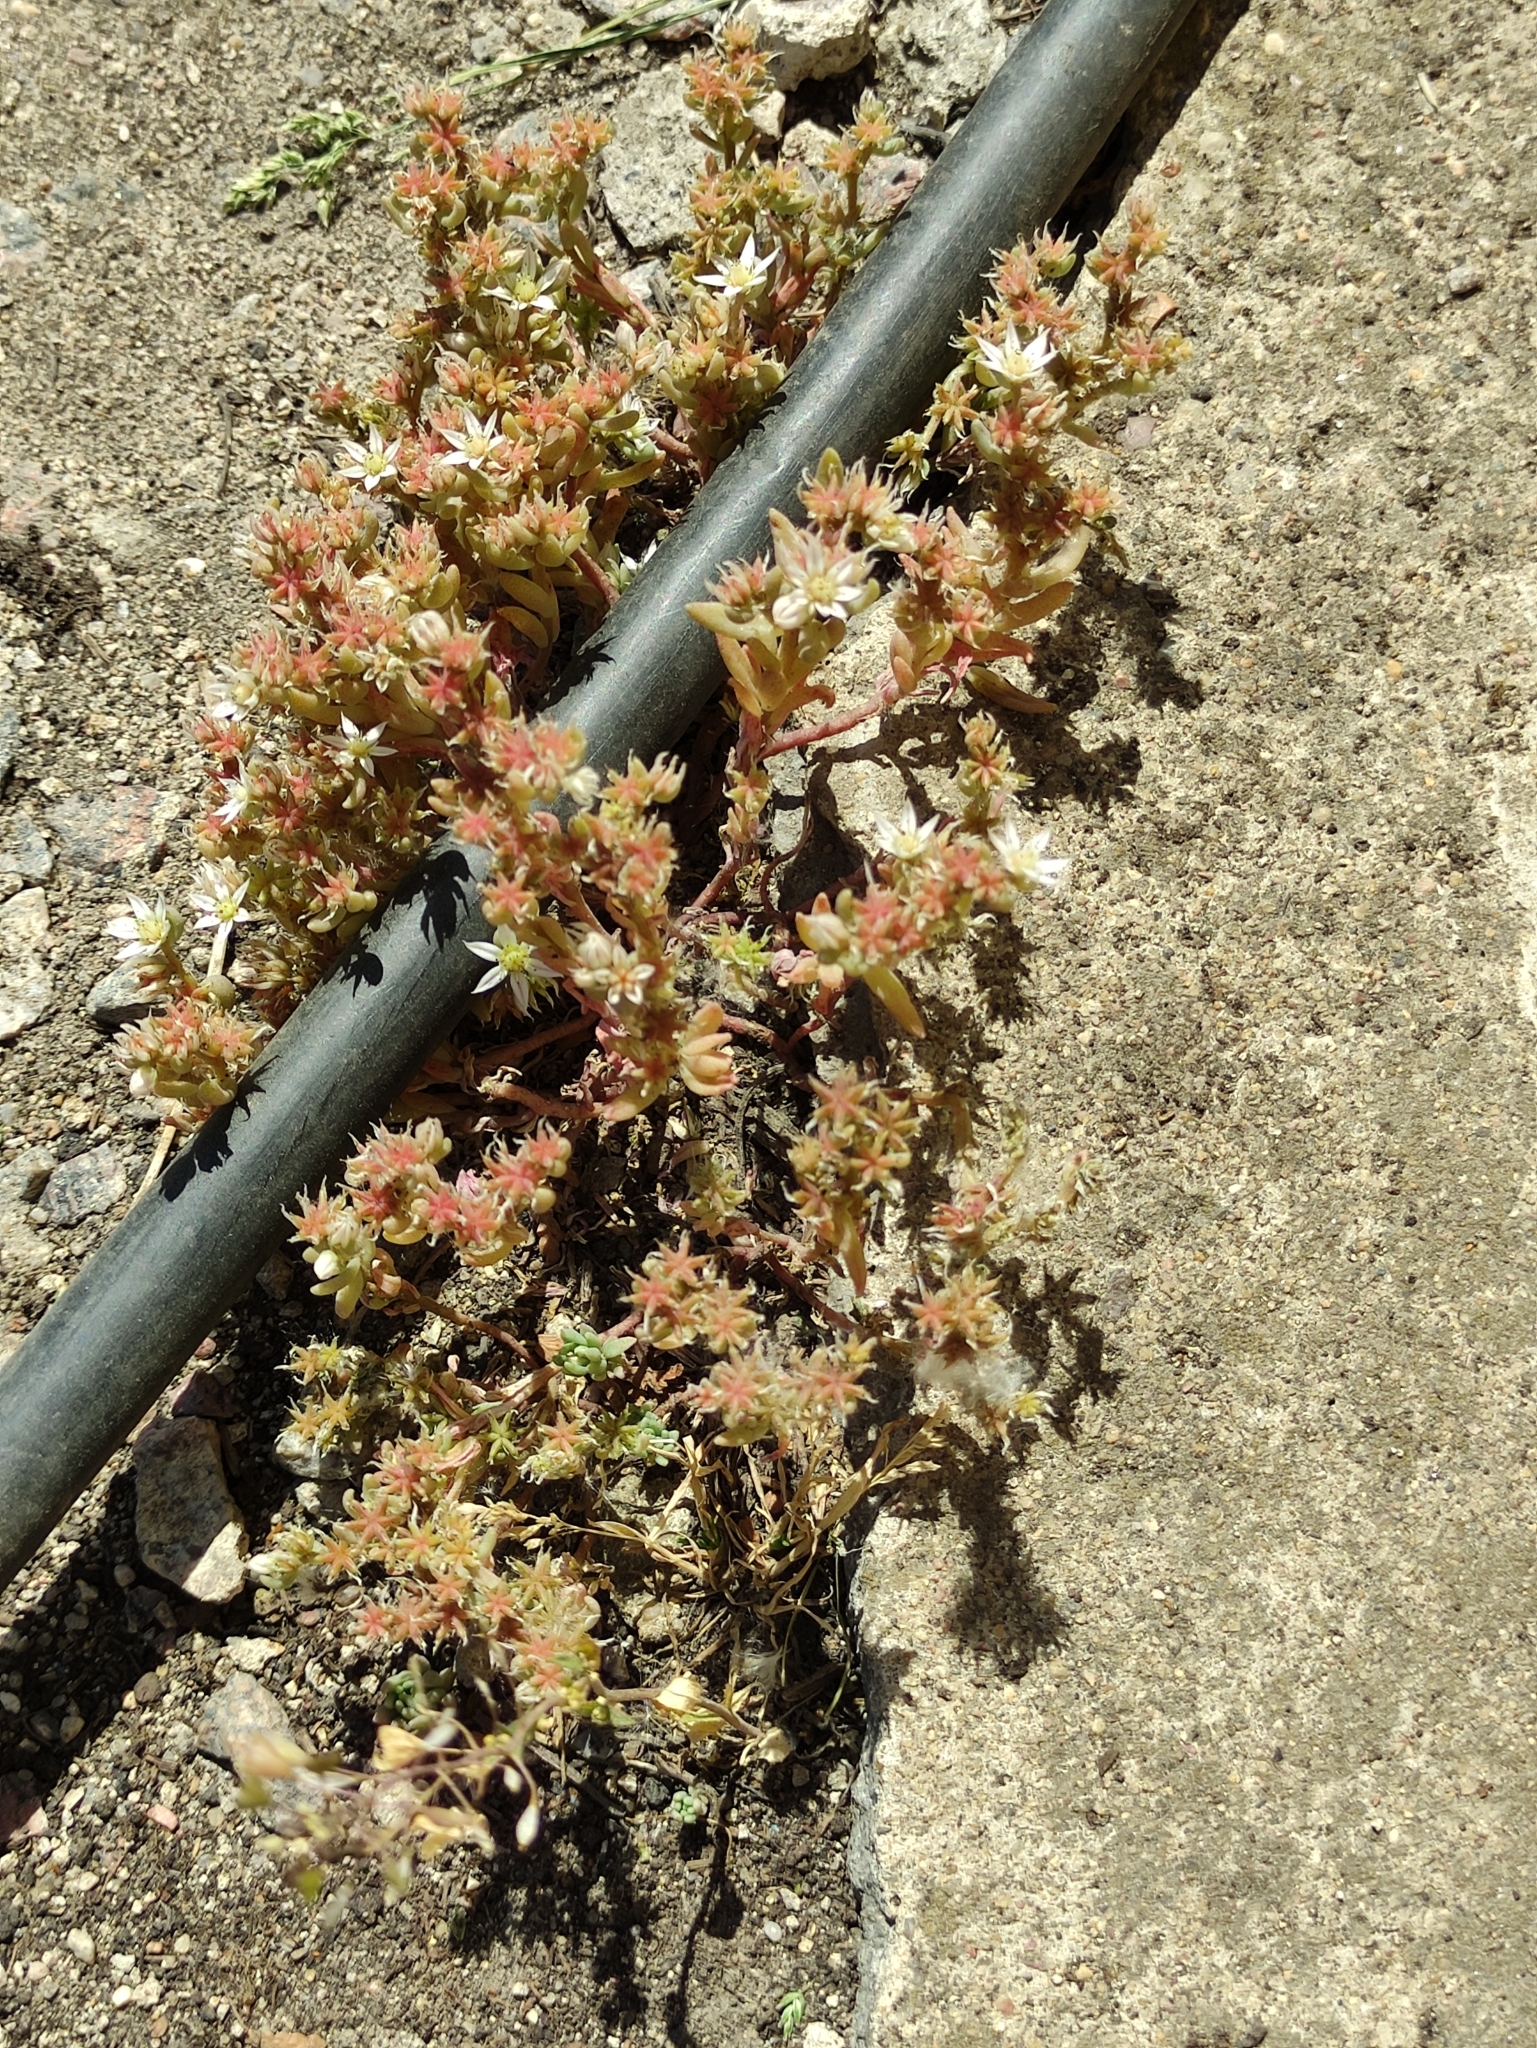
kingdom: Plantae
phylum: Tracheophyta
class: Magnoliopsida
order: Saxifragales
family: Crassulaceae
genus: Sedum
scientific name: Sedum hispanicum
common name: Spanish stonecrop
